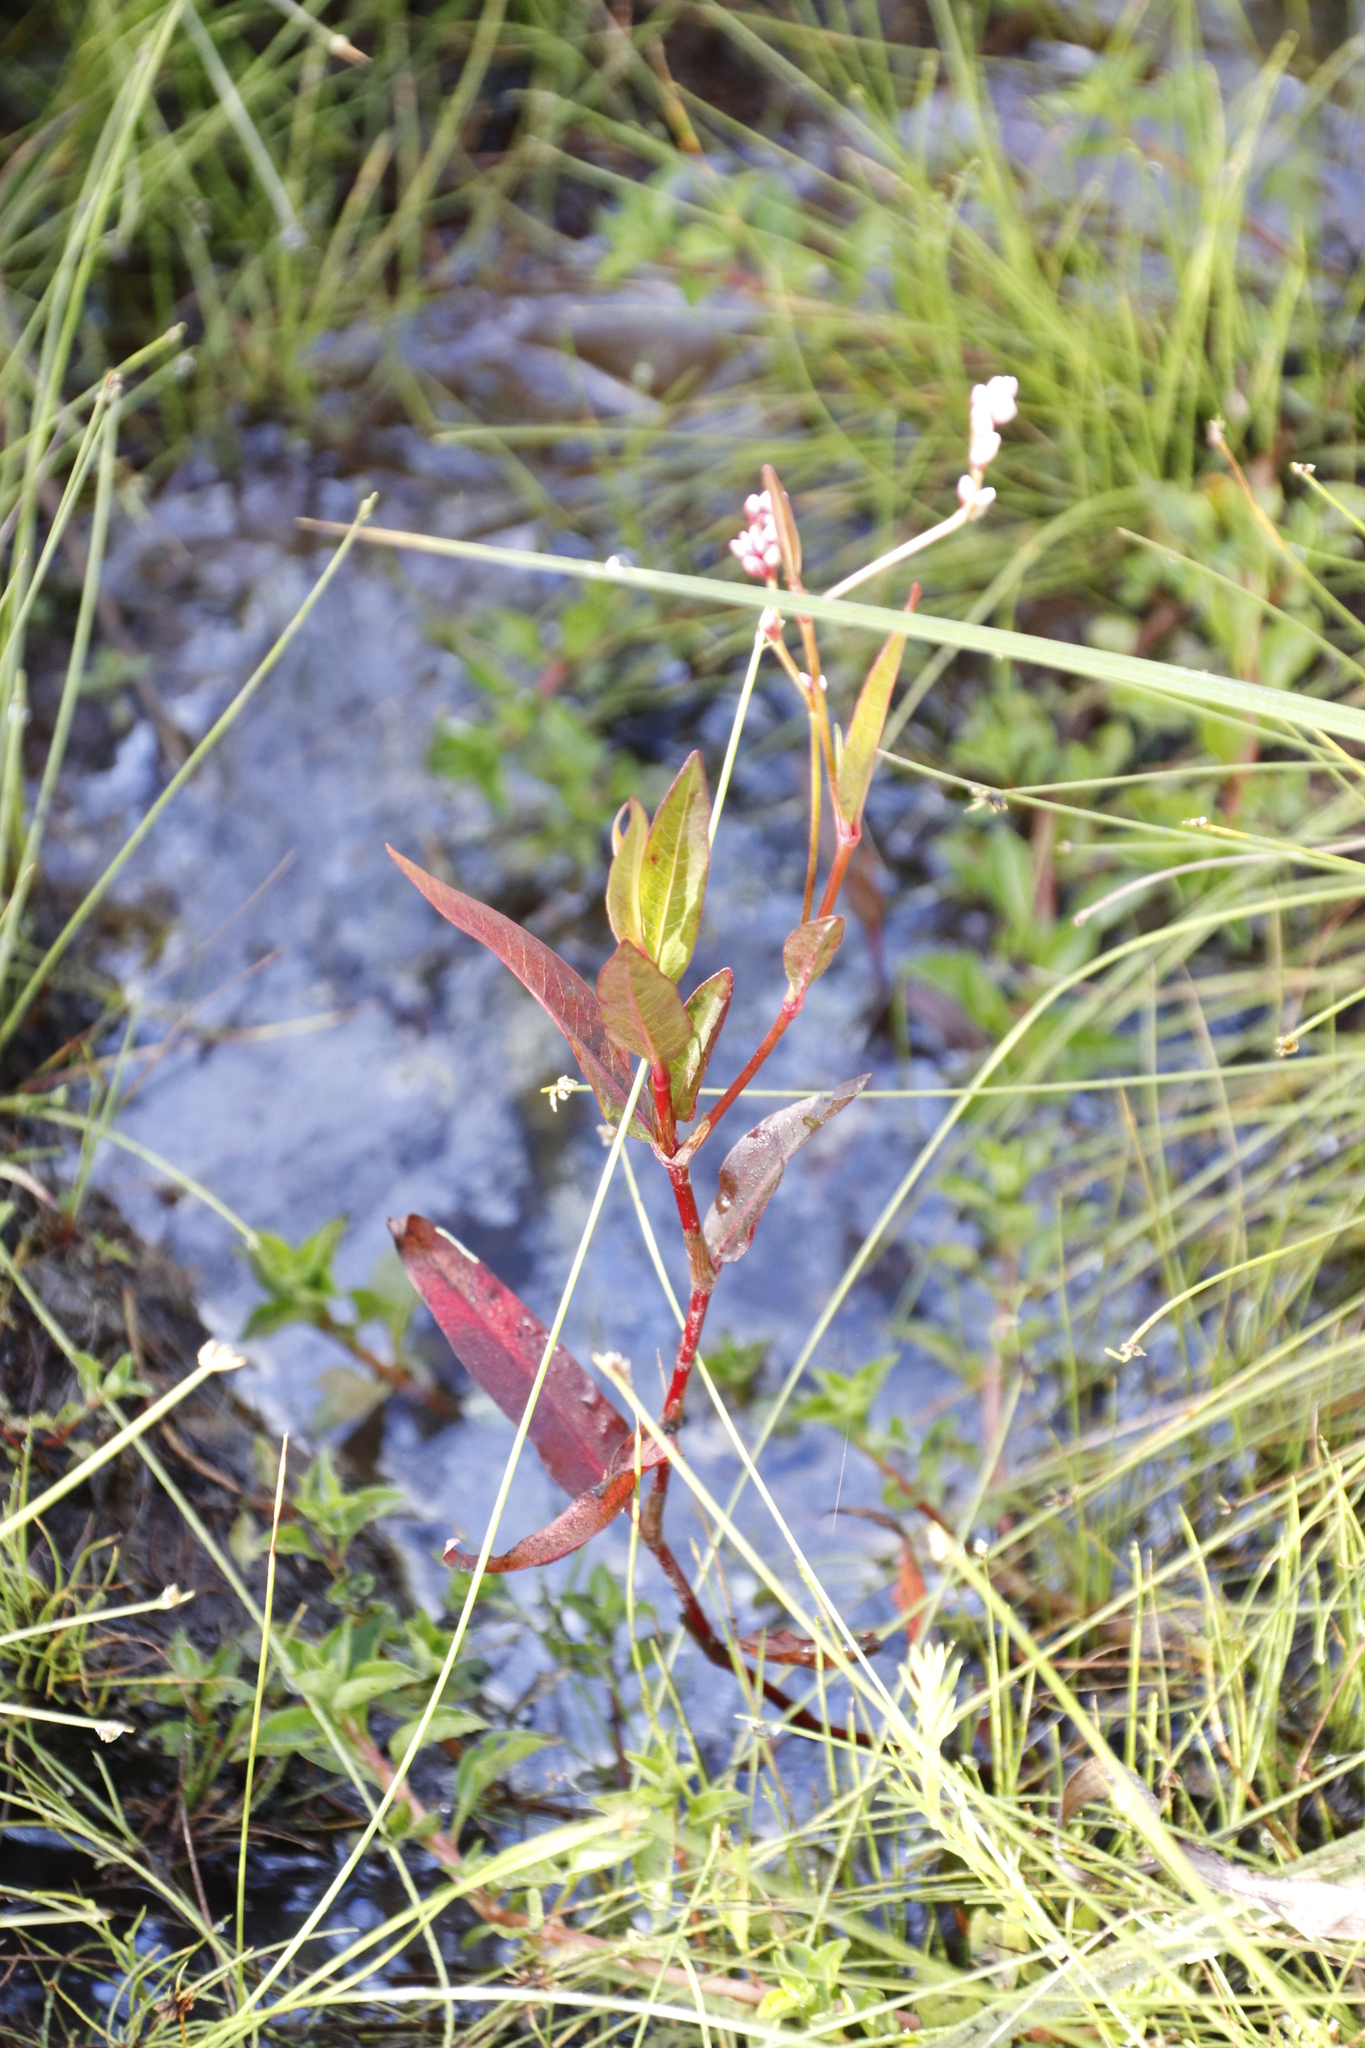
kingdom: Plantae
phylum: Tracheophyta
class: Magnoliopsida
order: Caryophyllales
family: Polygonaceae
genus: Persicaria
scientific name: Persicaria hystricula
